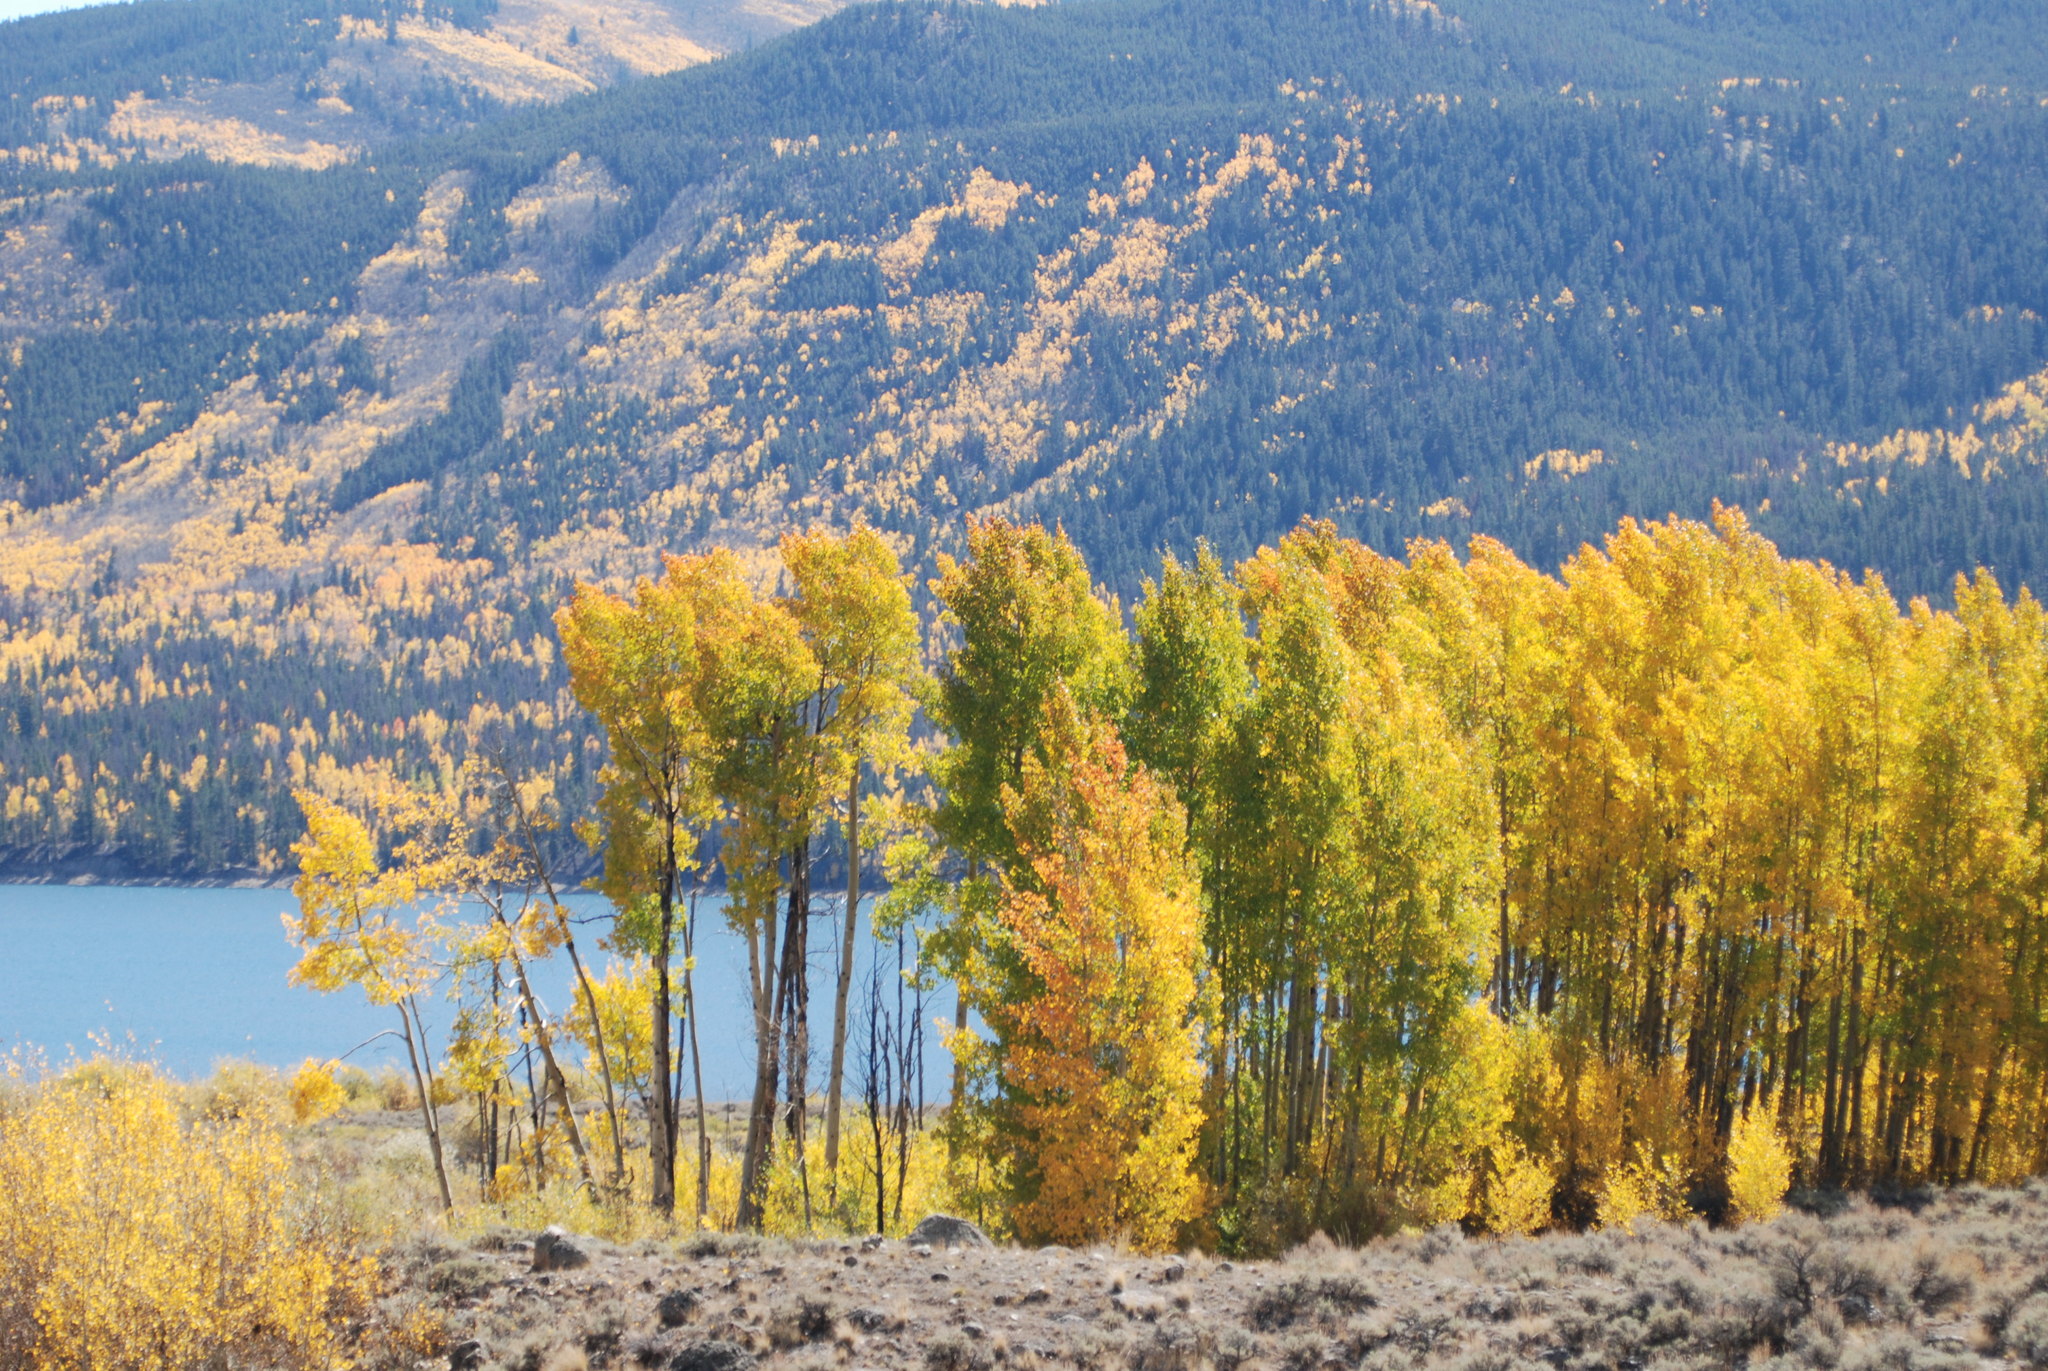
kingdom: Plantae
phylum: Tracheophyta
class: Magnoliopsida
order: Malpighiales
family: Salicaceae
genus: Populus
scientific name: Populus tremuloides
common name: Quaking aspen
